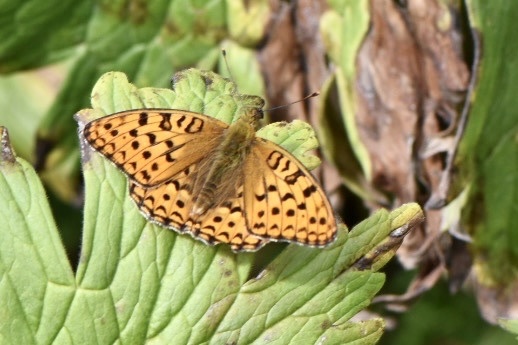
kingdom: Animalia
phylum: Arthropoda
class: Insecta
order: Lepidoptera
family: Nymphalidae
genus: Fabriciana
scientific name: Fabriciana adippe
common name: High brown fritillary
